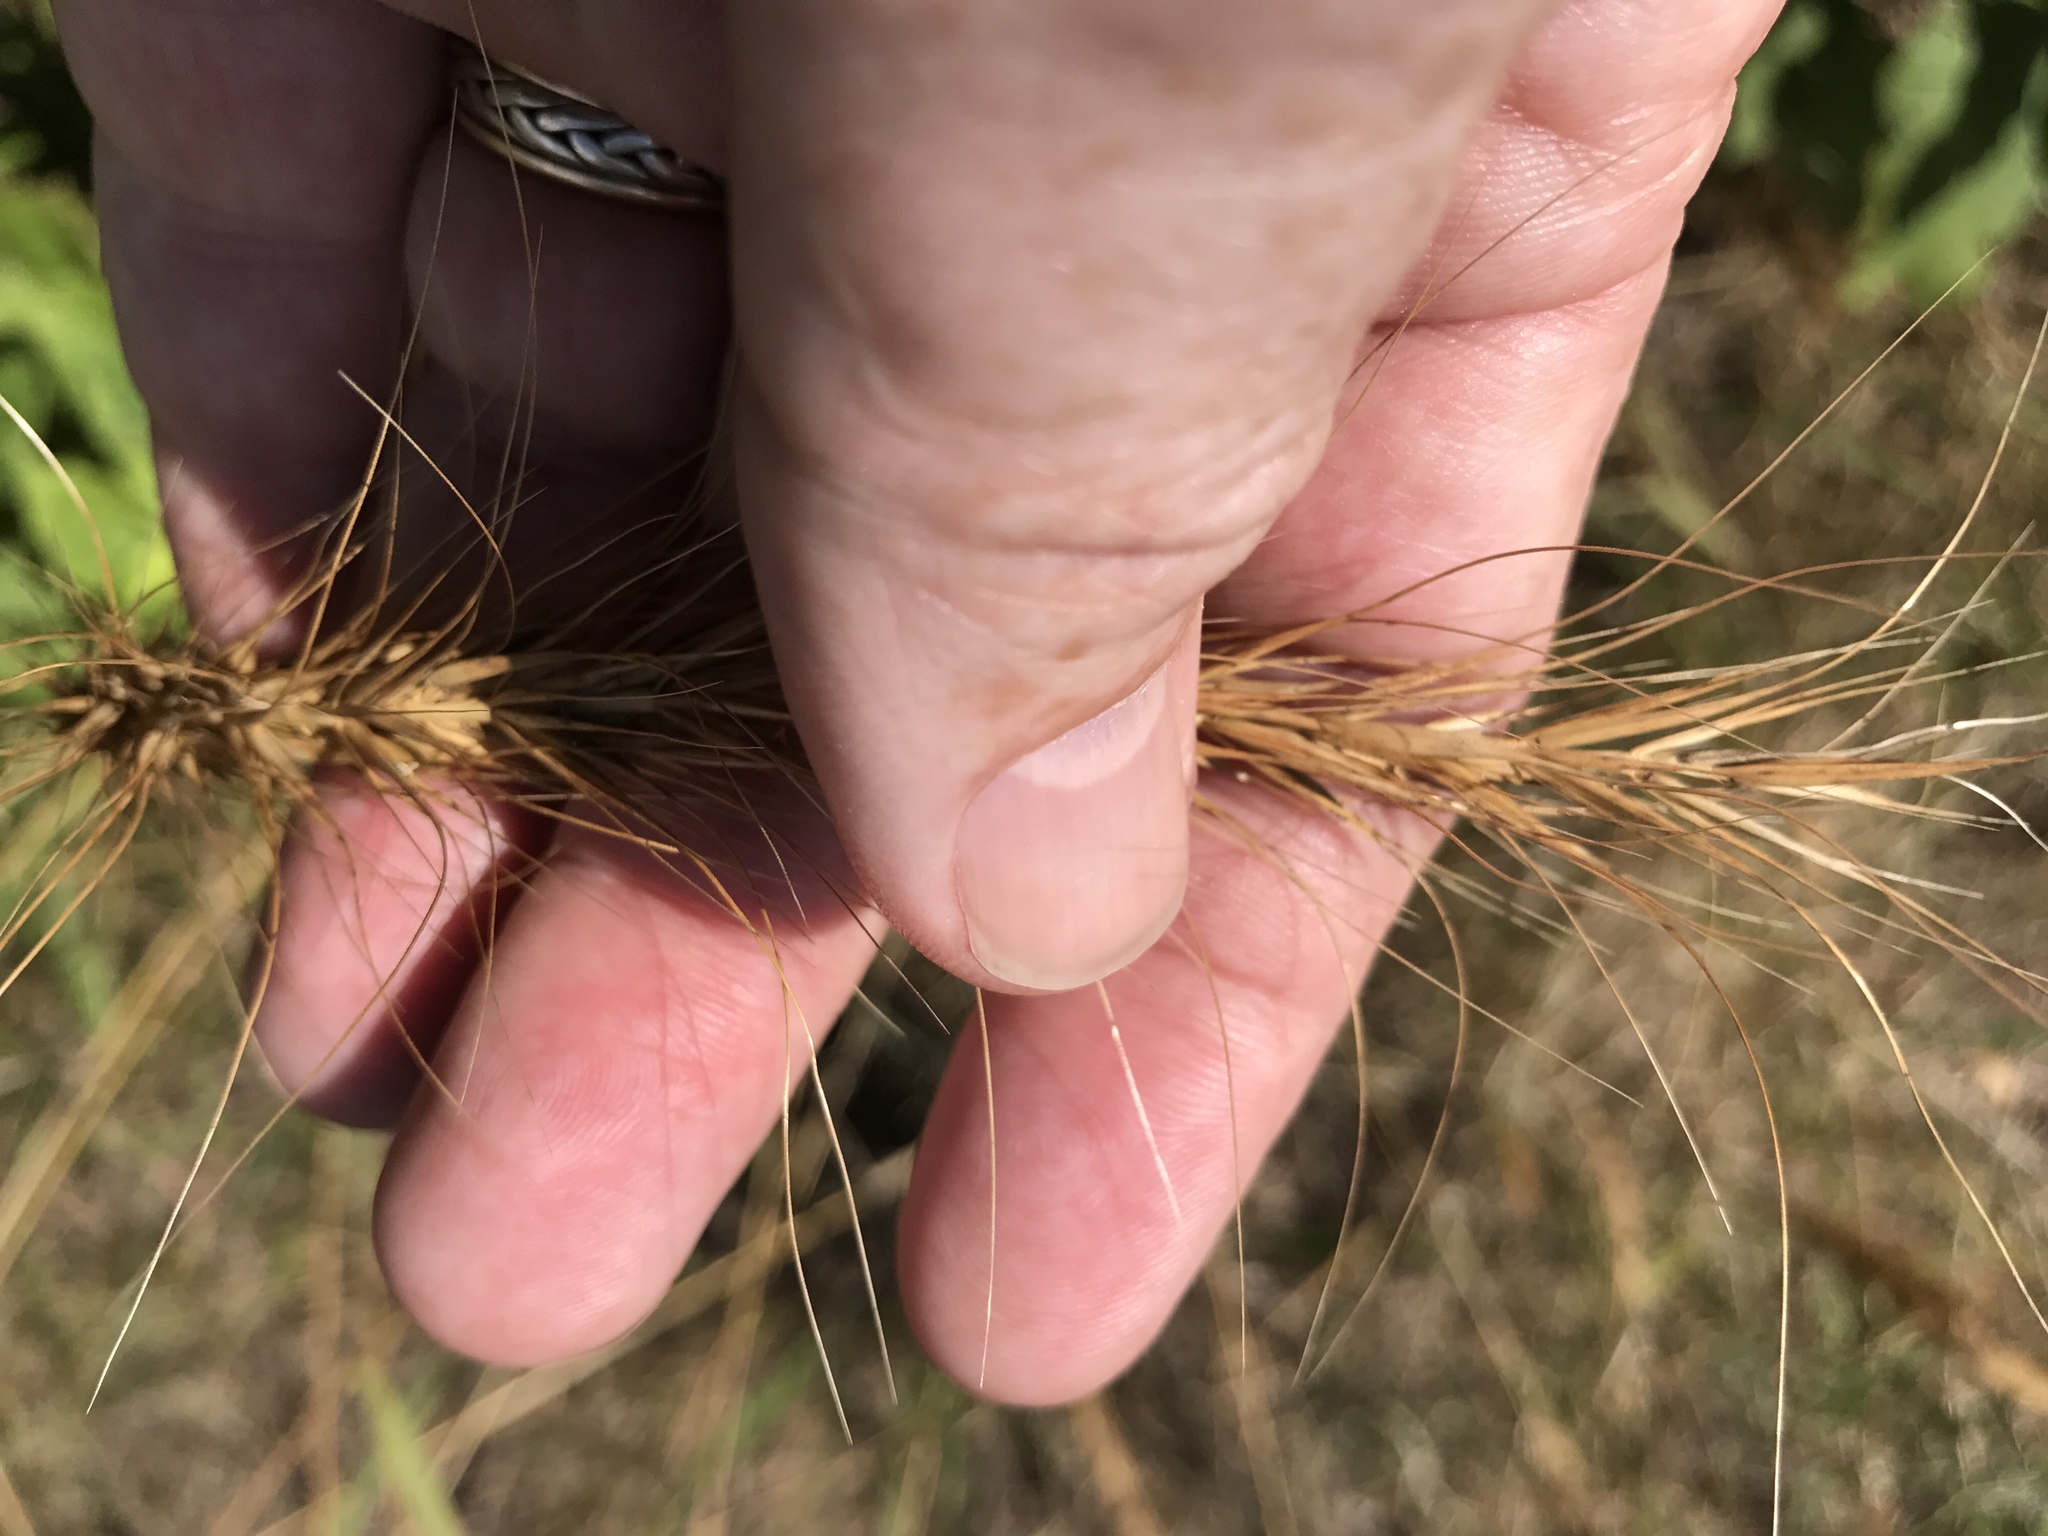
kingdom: Plantae
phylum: Tracheophyta
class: Liliopsida
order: Poales
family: Poaceae
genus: Elymus
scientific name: Elymus canadensis
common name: Canada wild rye
